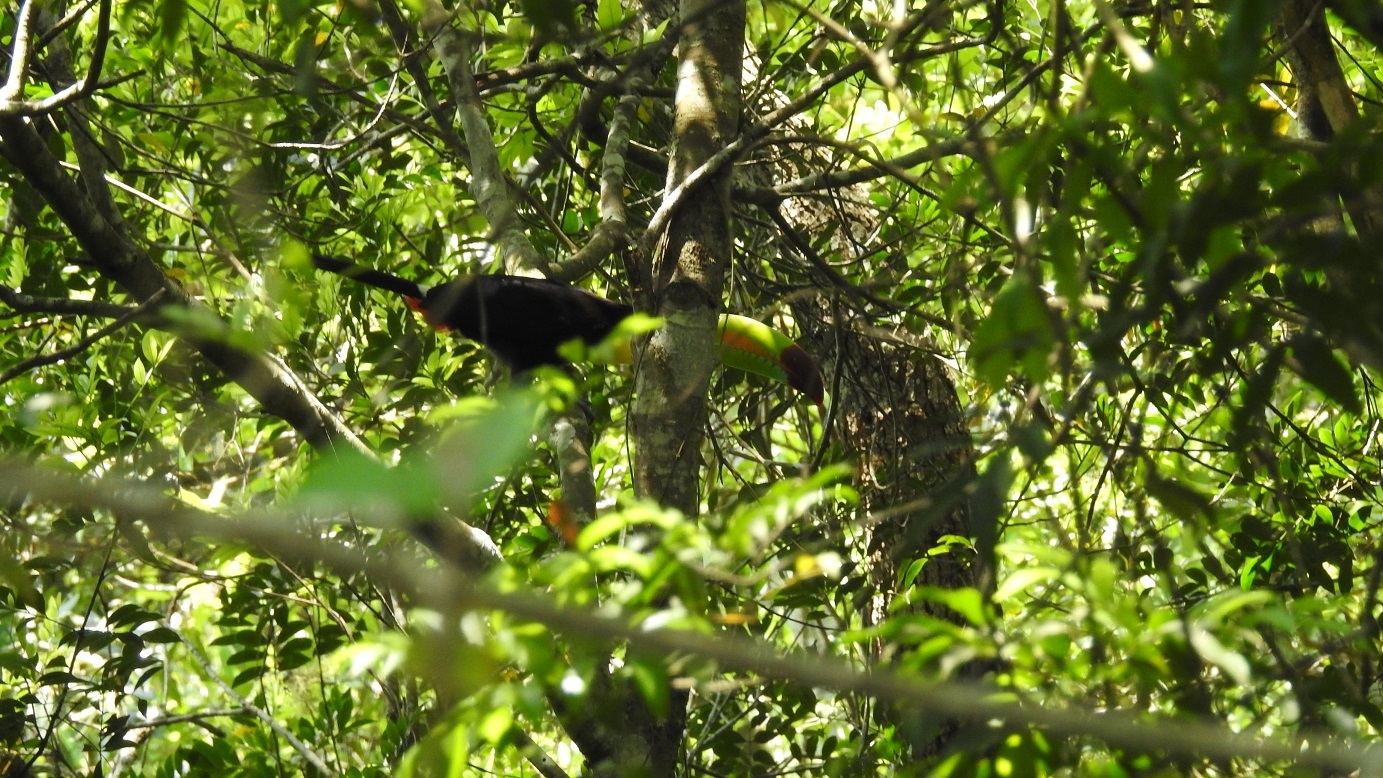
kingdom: Animalia
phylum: Chordata
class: Aves
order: Piciformes
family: Ramphastidae
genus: Ramphastos
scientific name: Ramphastos sulfuratus
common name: Keel-billed toucan
